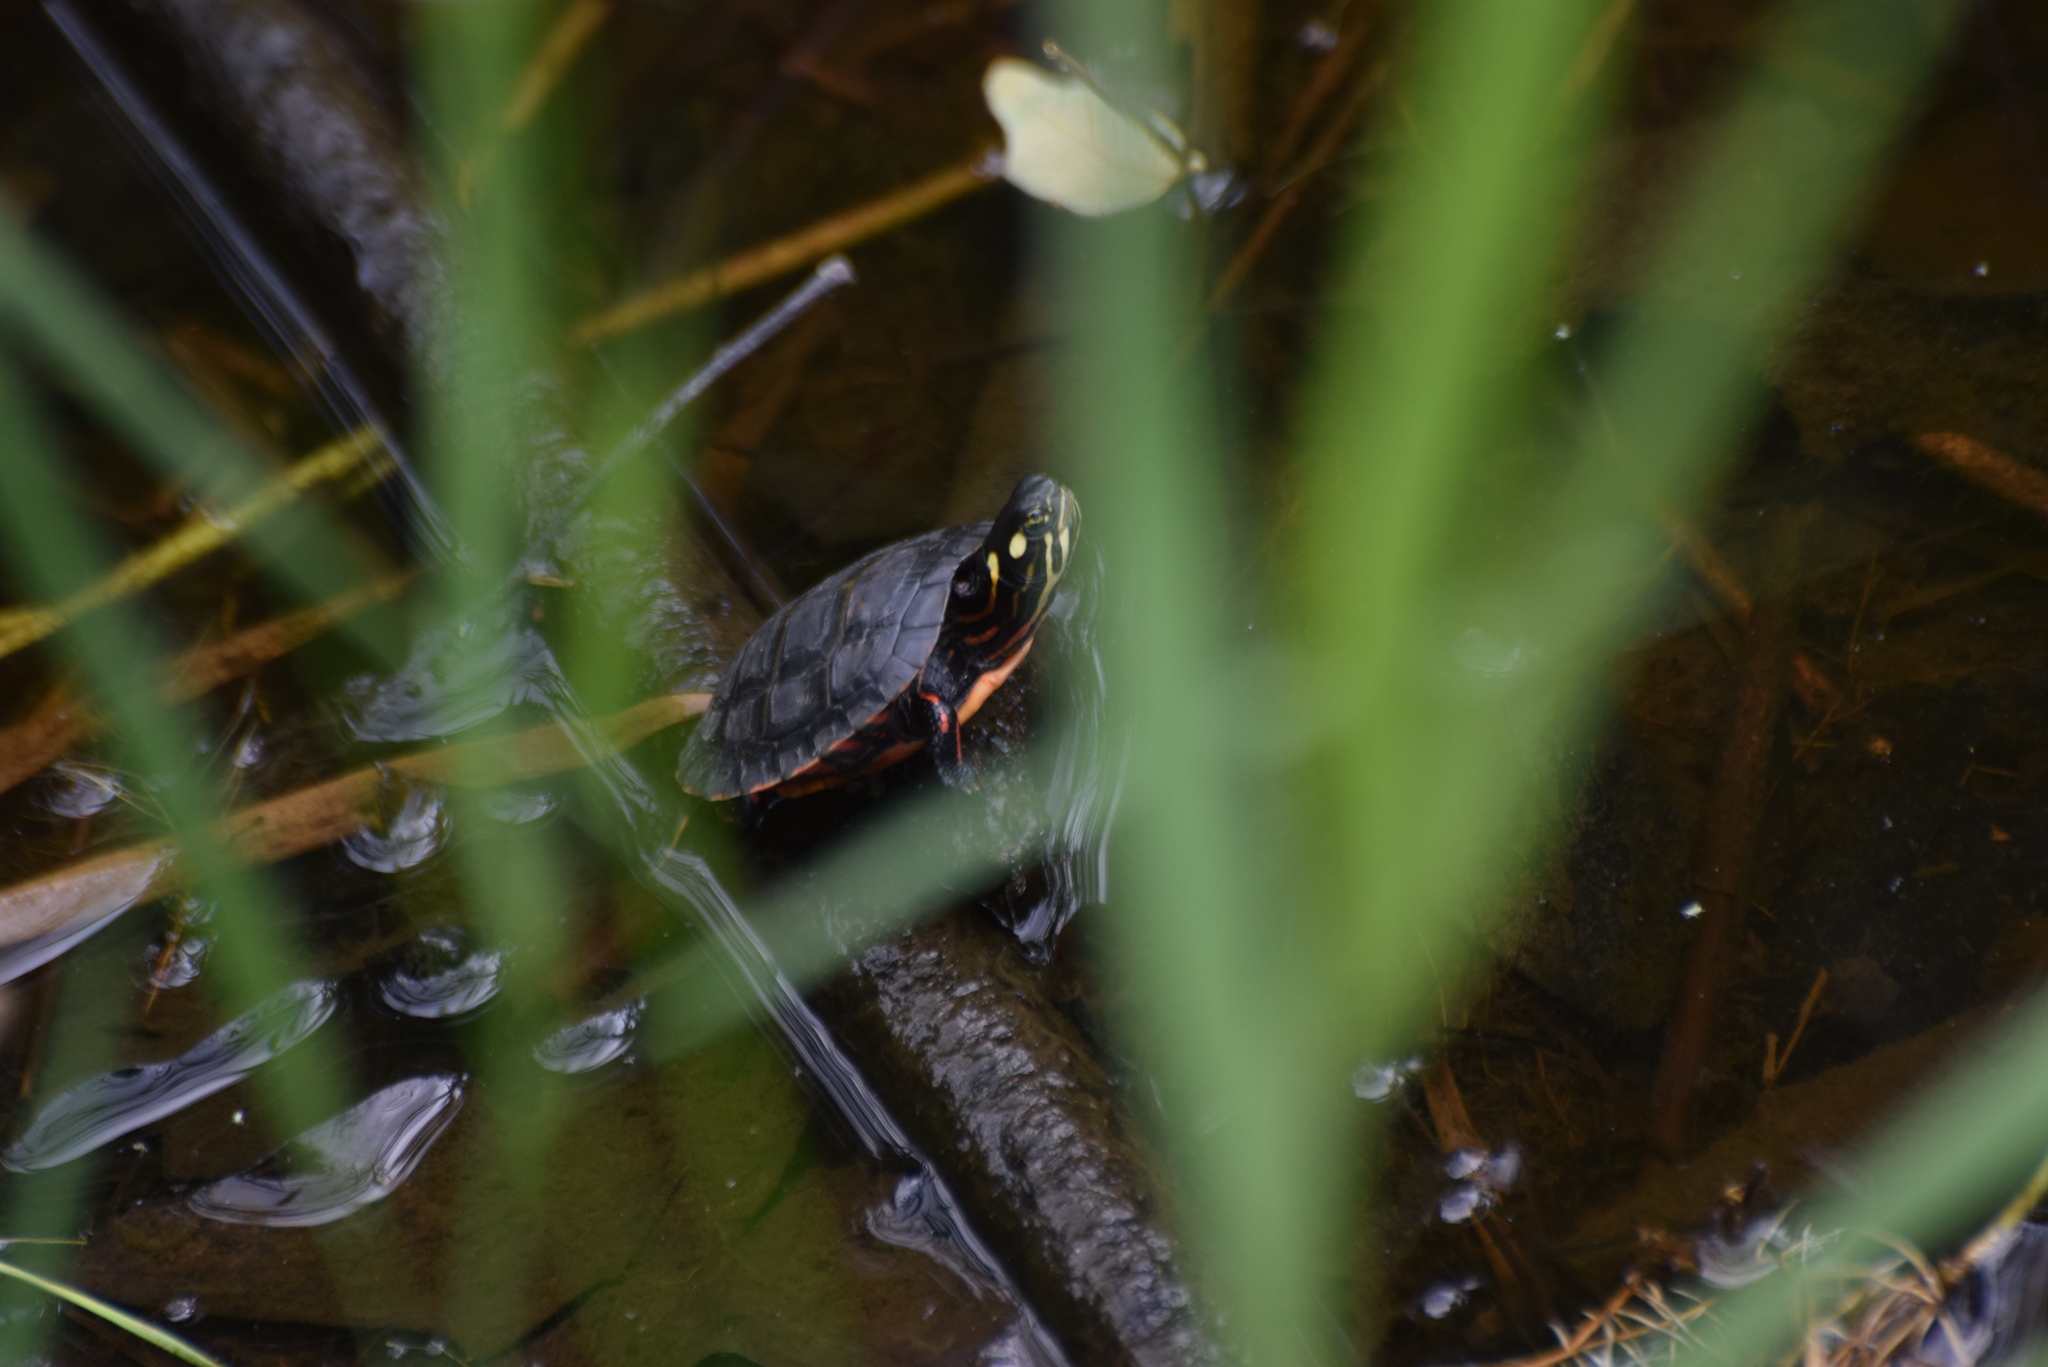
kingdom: Animalia
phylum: Chordata
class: Testudines
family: Emydidae
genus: Chrysemys
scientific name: Chrysemys picta
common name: Painted turtle
